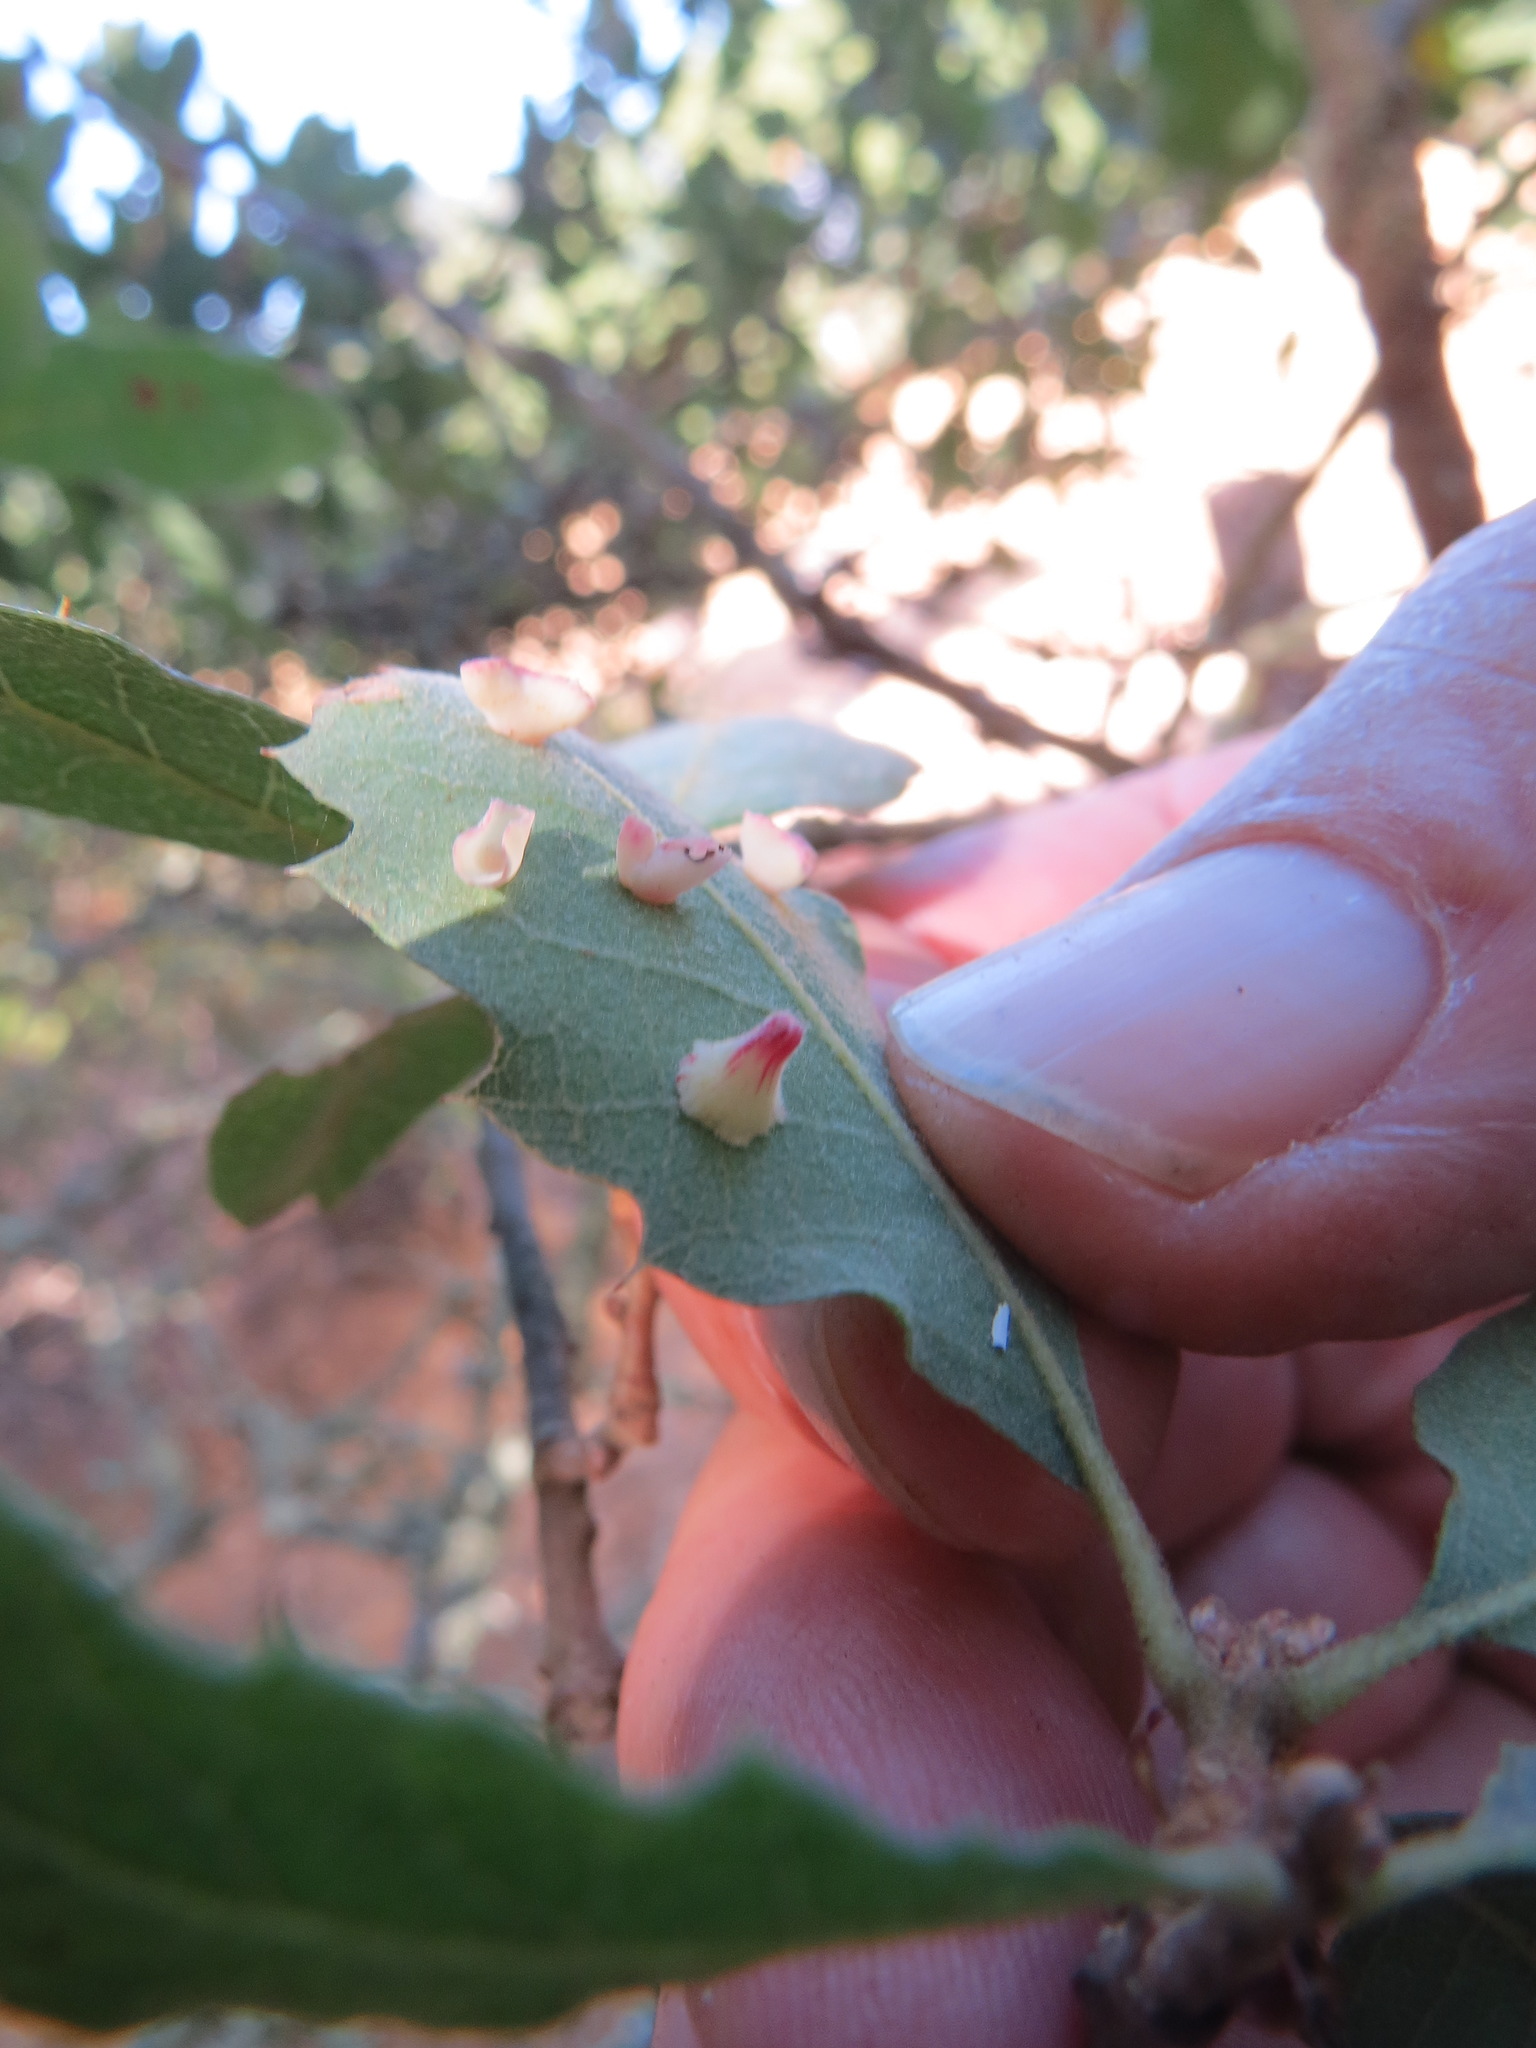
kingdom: Animalia
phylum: Arthropoda
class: Insecta
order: Hymenoptera
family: Cynipidae
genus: Andricus
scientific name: Andricus
